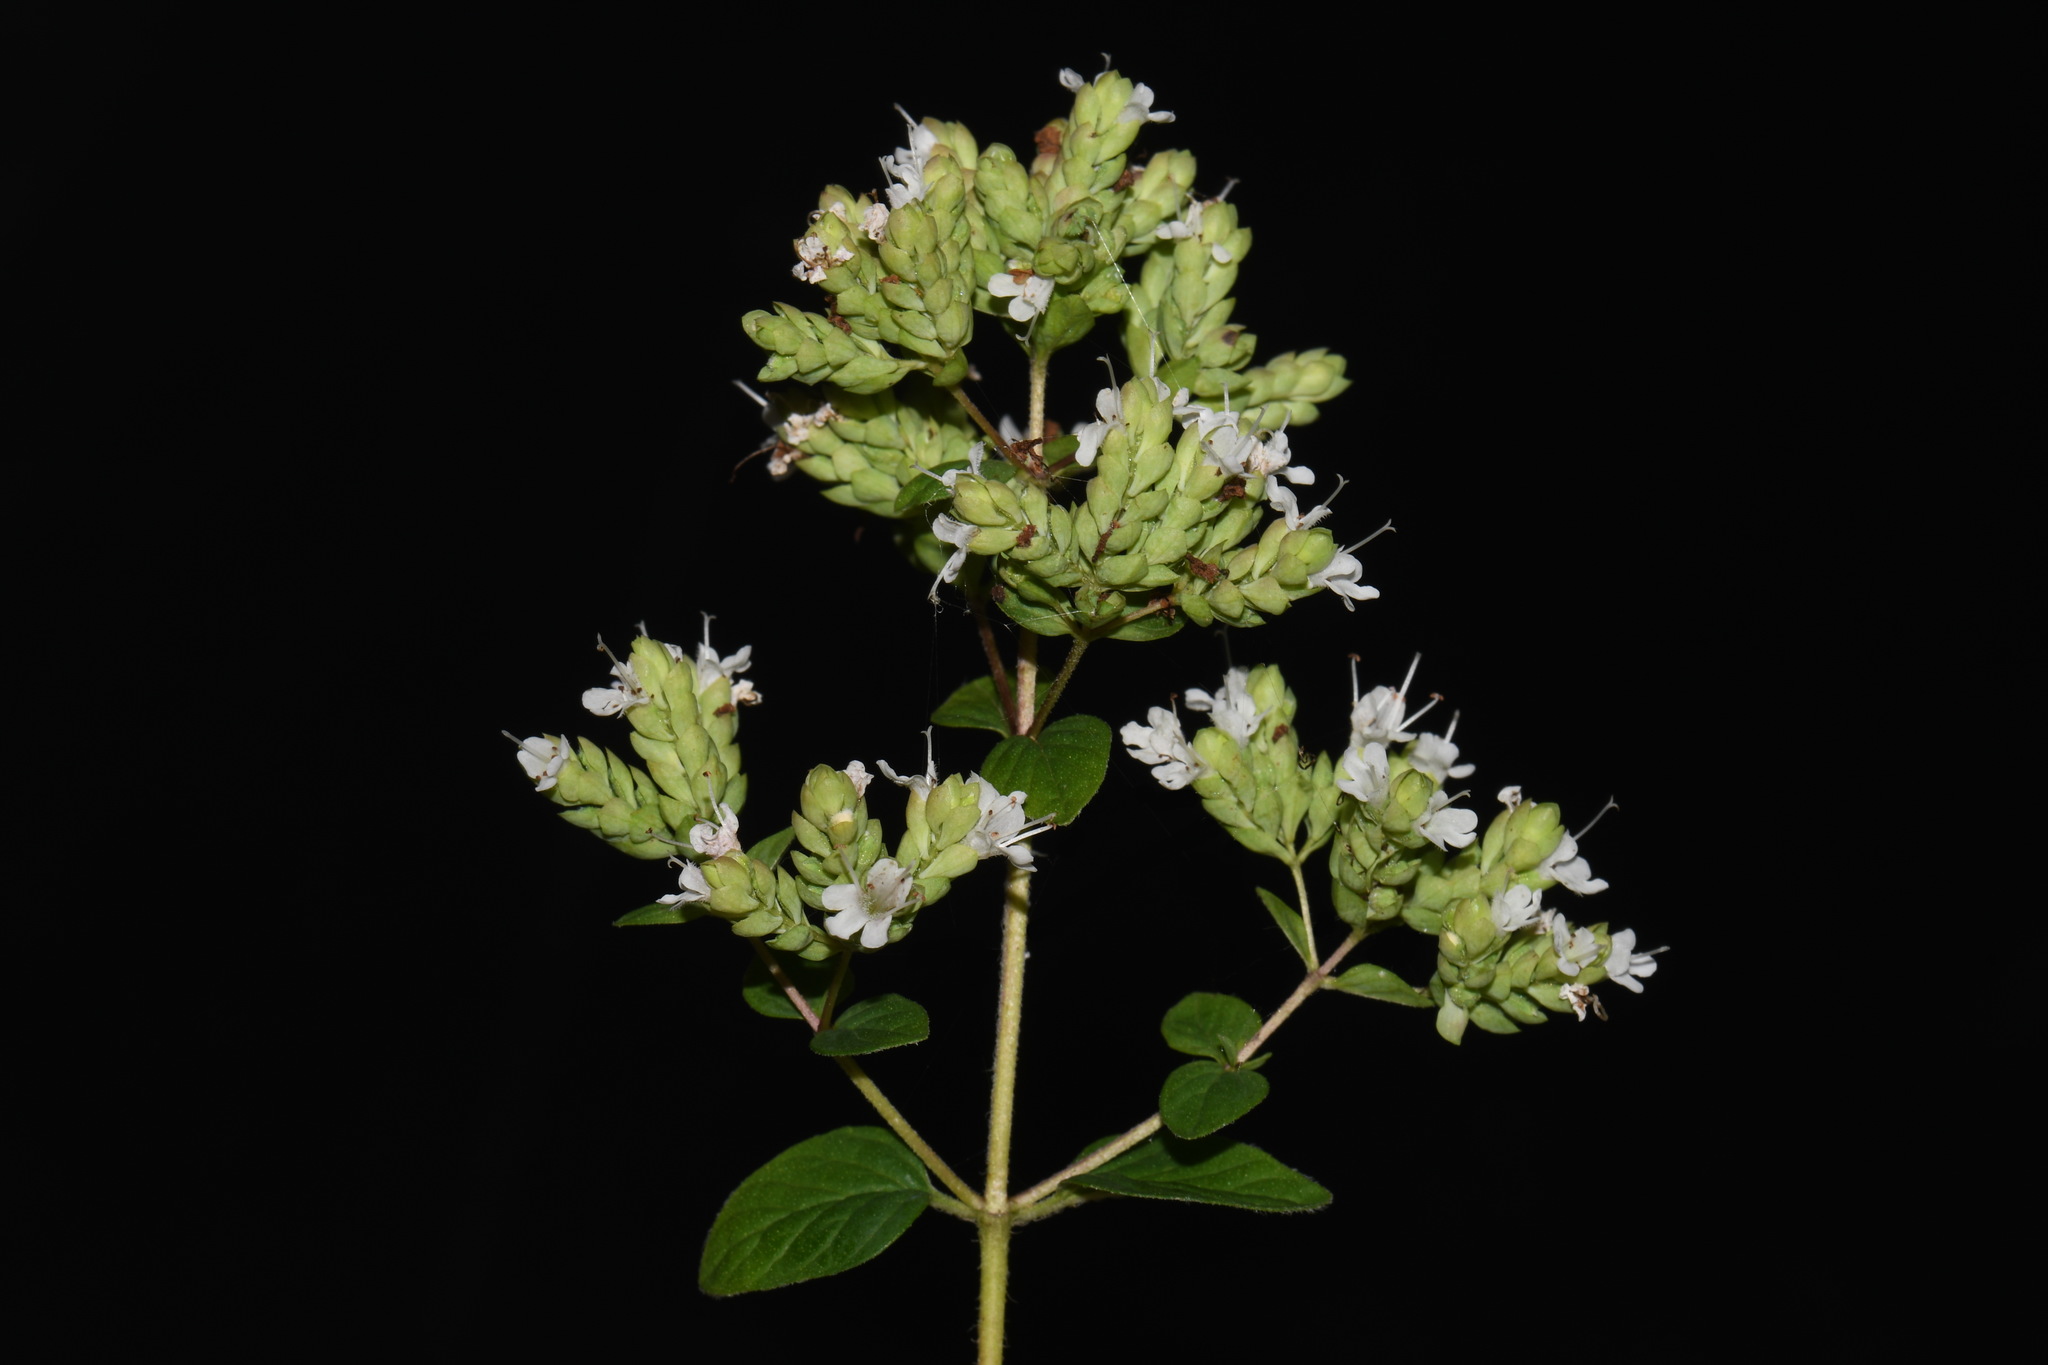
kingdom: Plantae
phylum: Tracheophyta
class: Magnoliopsida
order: Lamiales
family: Lamiaceae
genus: Origanum
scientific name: Origanum vulgare
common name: Wild marjoram
